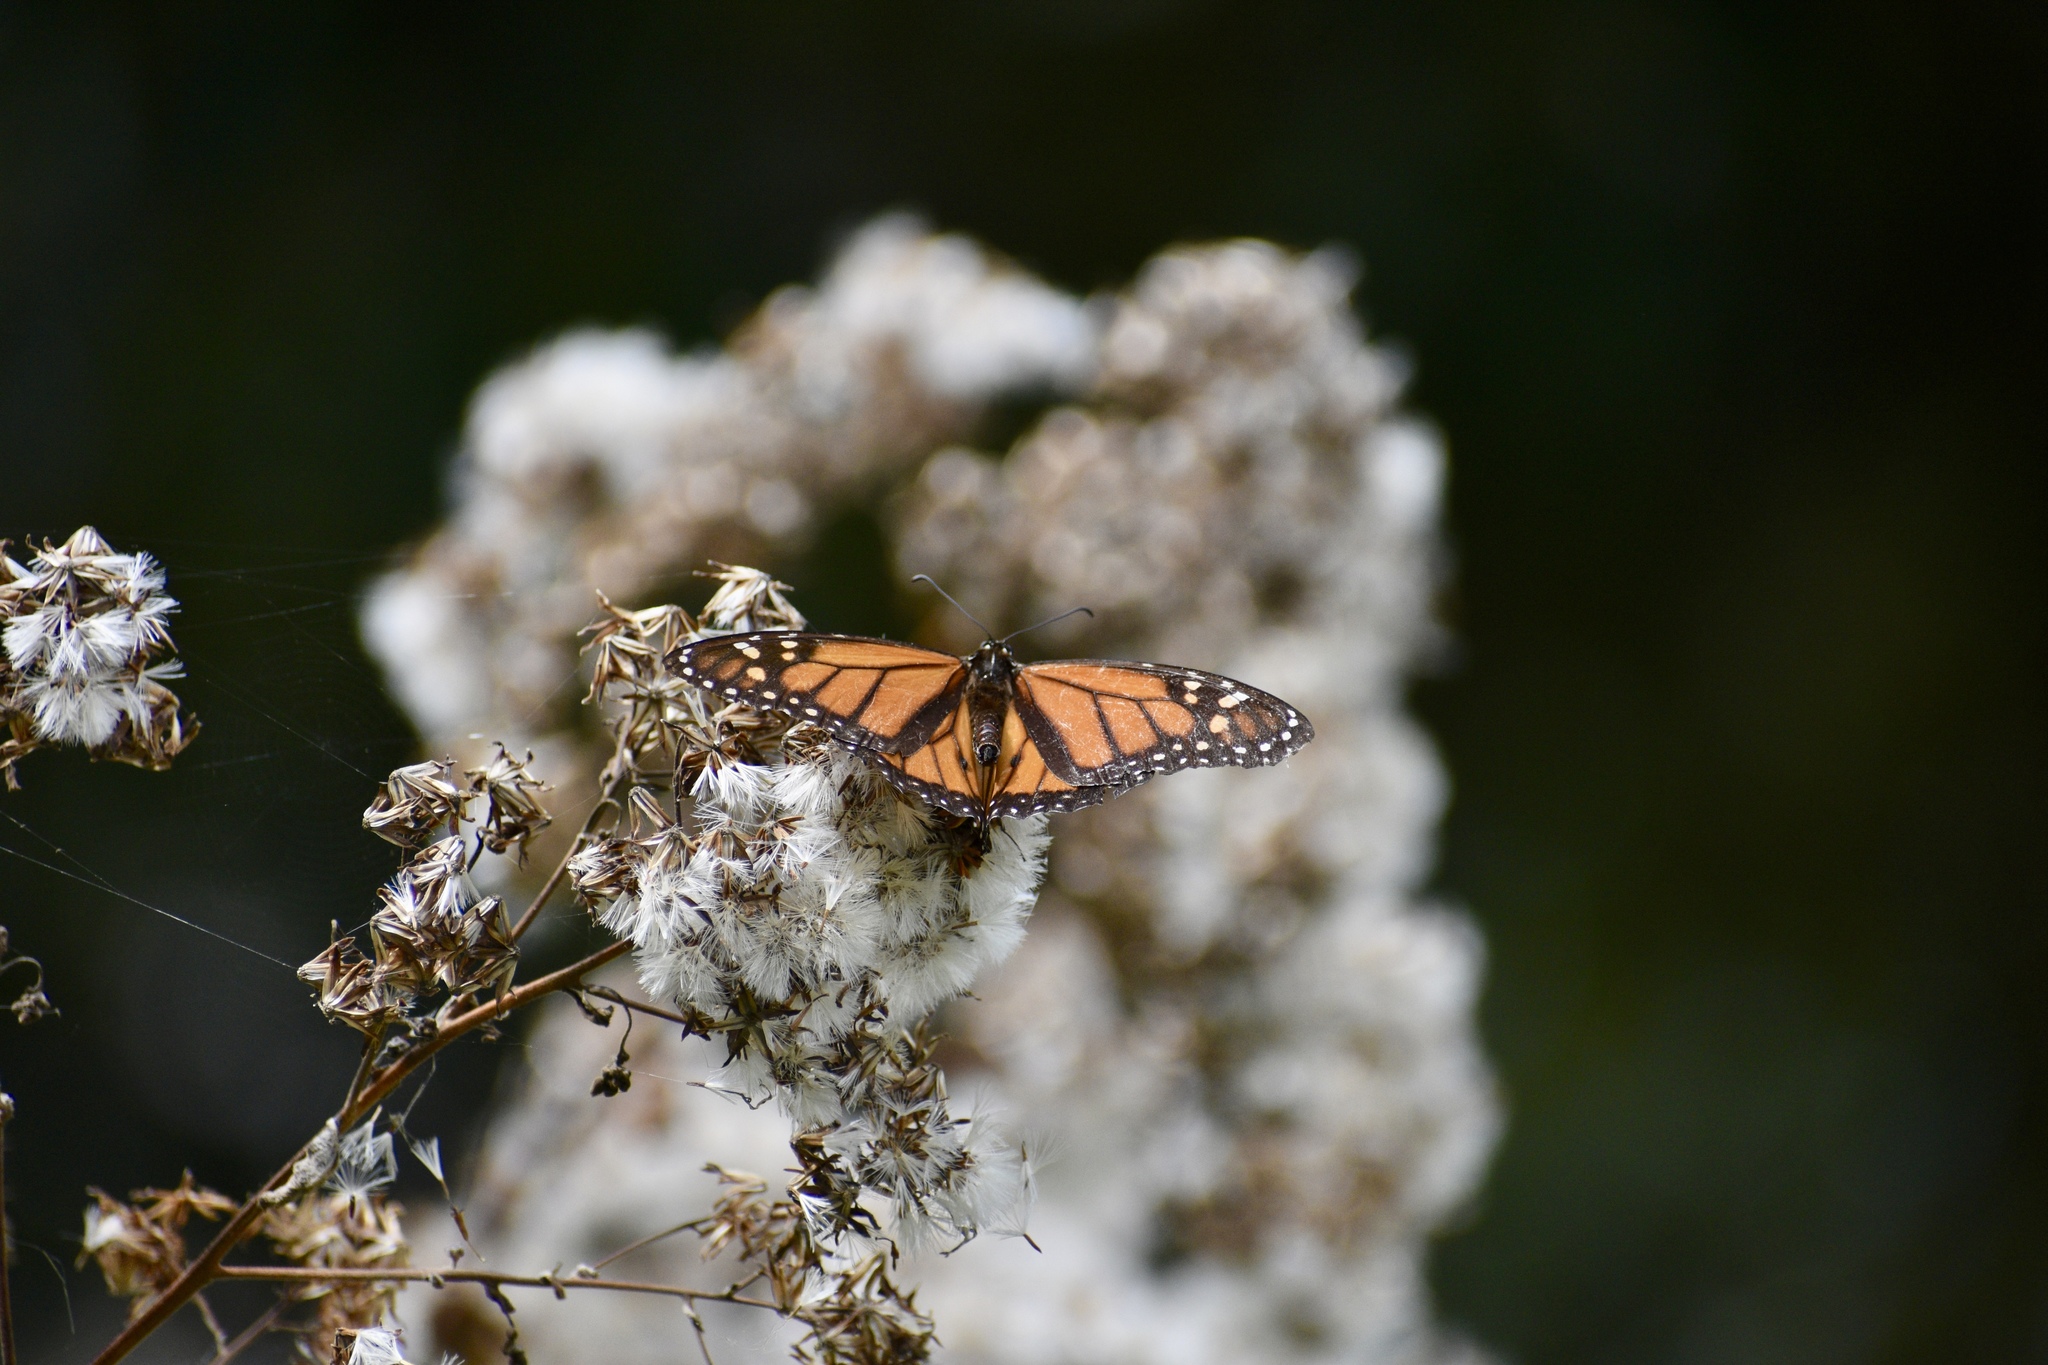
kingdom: Animalia
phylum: Arthropoda
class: Insecta
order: Lepidoptera
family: Nymphalidae
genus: Danaus
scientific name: Danaus plexippus
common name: Monarch
